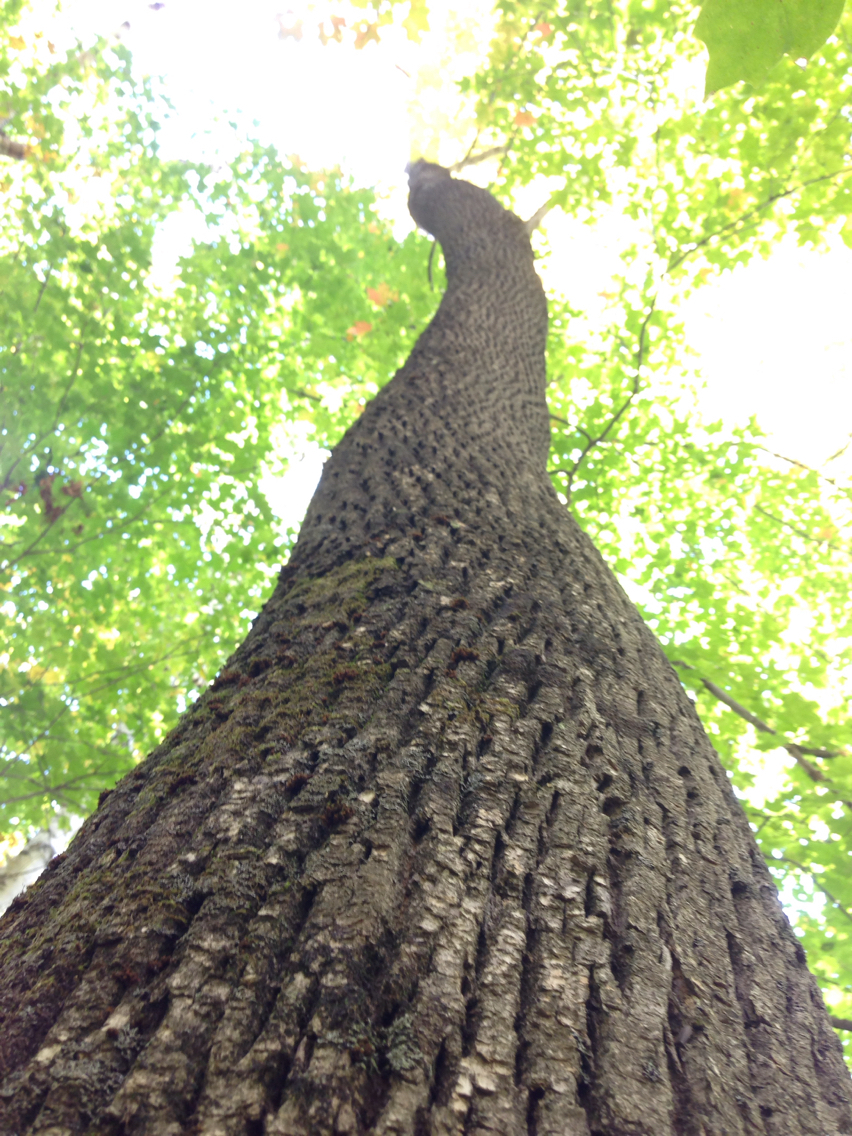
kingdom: Plantae
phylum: Tracheophyta
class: Magnoliopsida
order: Lamiales
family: Oleaceae
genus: Fraxinus
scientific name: Fraxinus americana
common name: White ash
